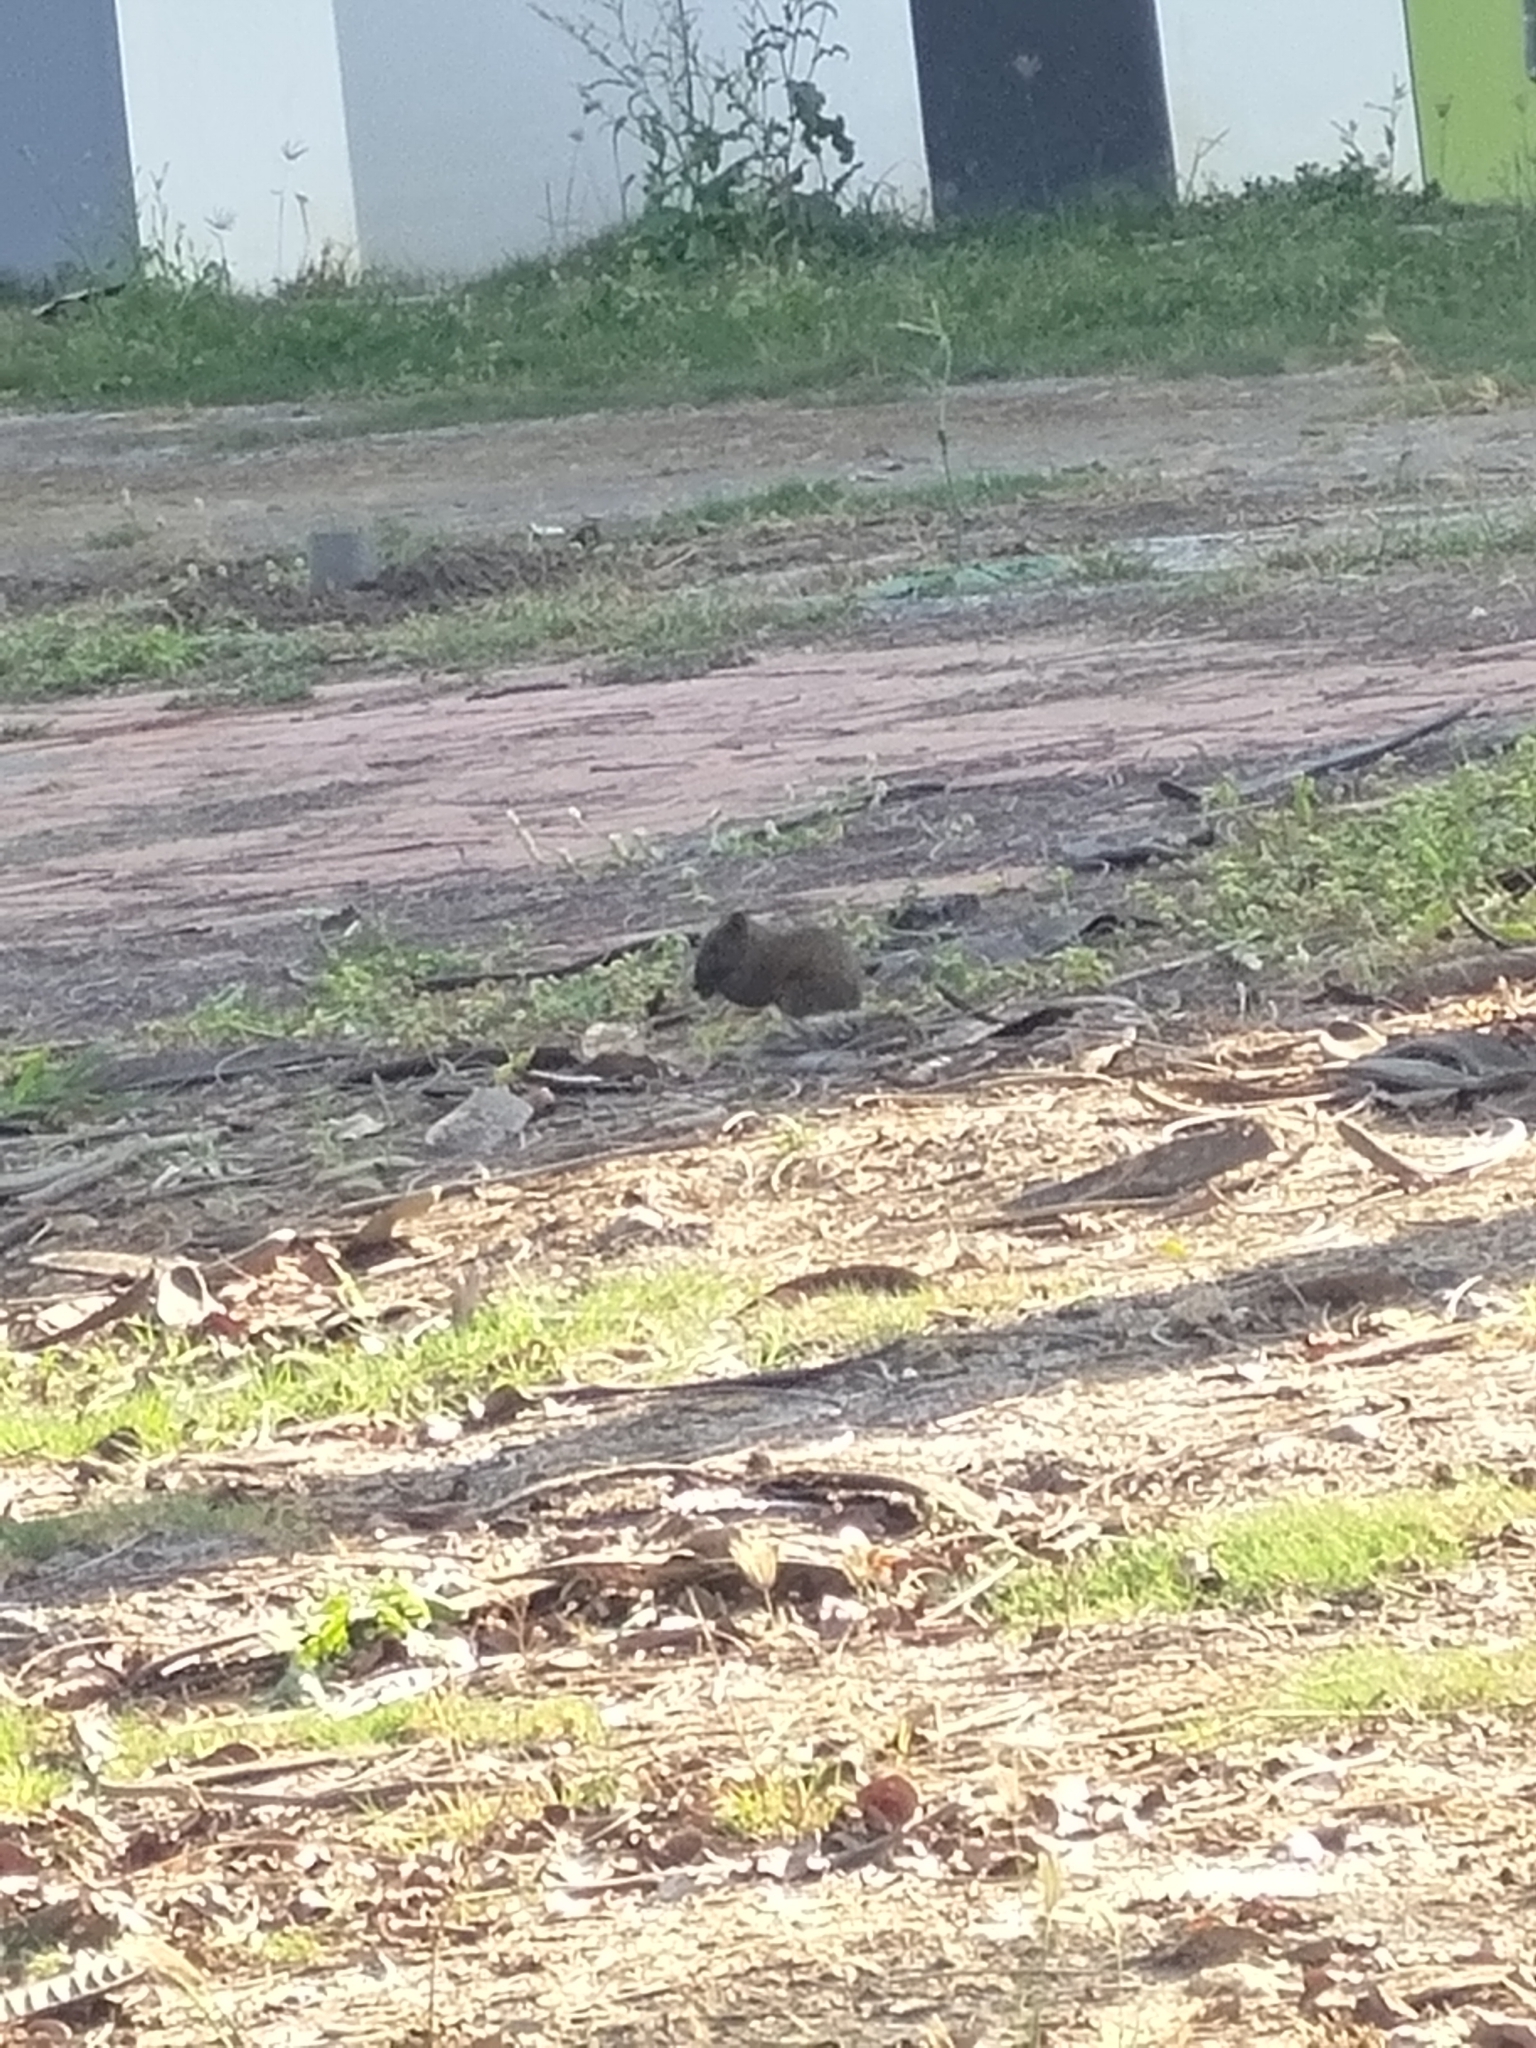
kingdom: Animalia
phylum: Chordata
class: Mammalia
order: Rodentia
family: Sciuridae
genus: Callosciurus
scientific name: Callosciurus erythraeus
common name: Pallas's squirrel
